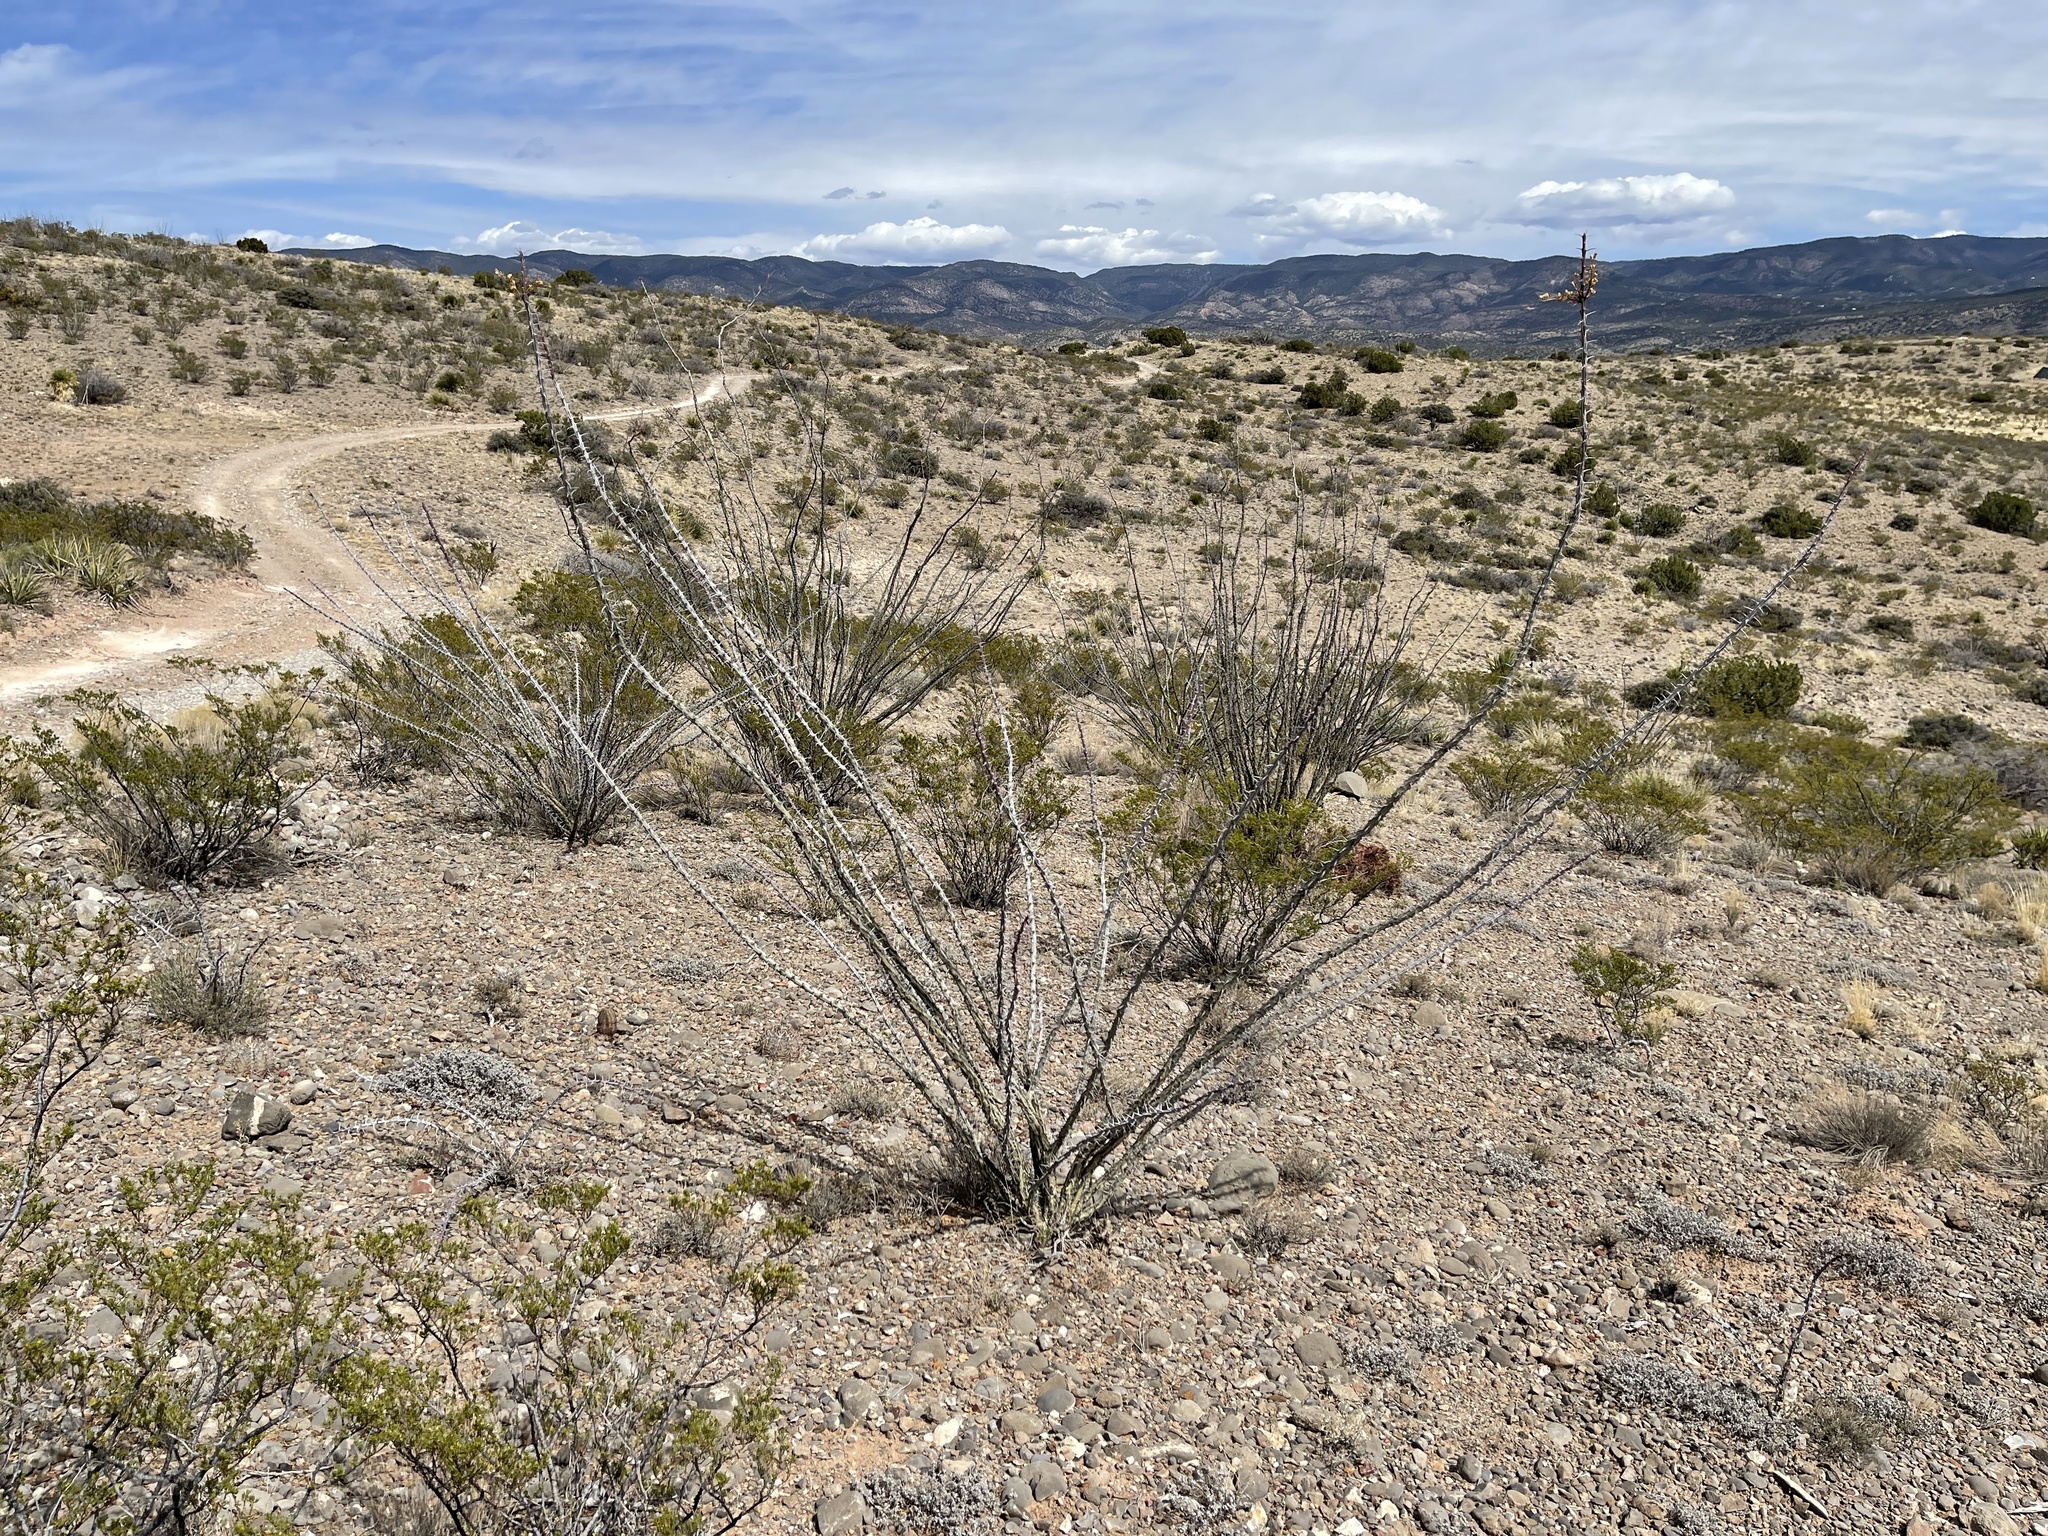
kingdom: Plantae
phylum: Tracheophyta
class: Magnoliopsida
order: Ericales
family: Fouquieriaceae
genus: Fouquieria
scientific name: Fouquieria splendens
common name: Vine-cactus
